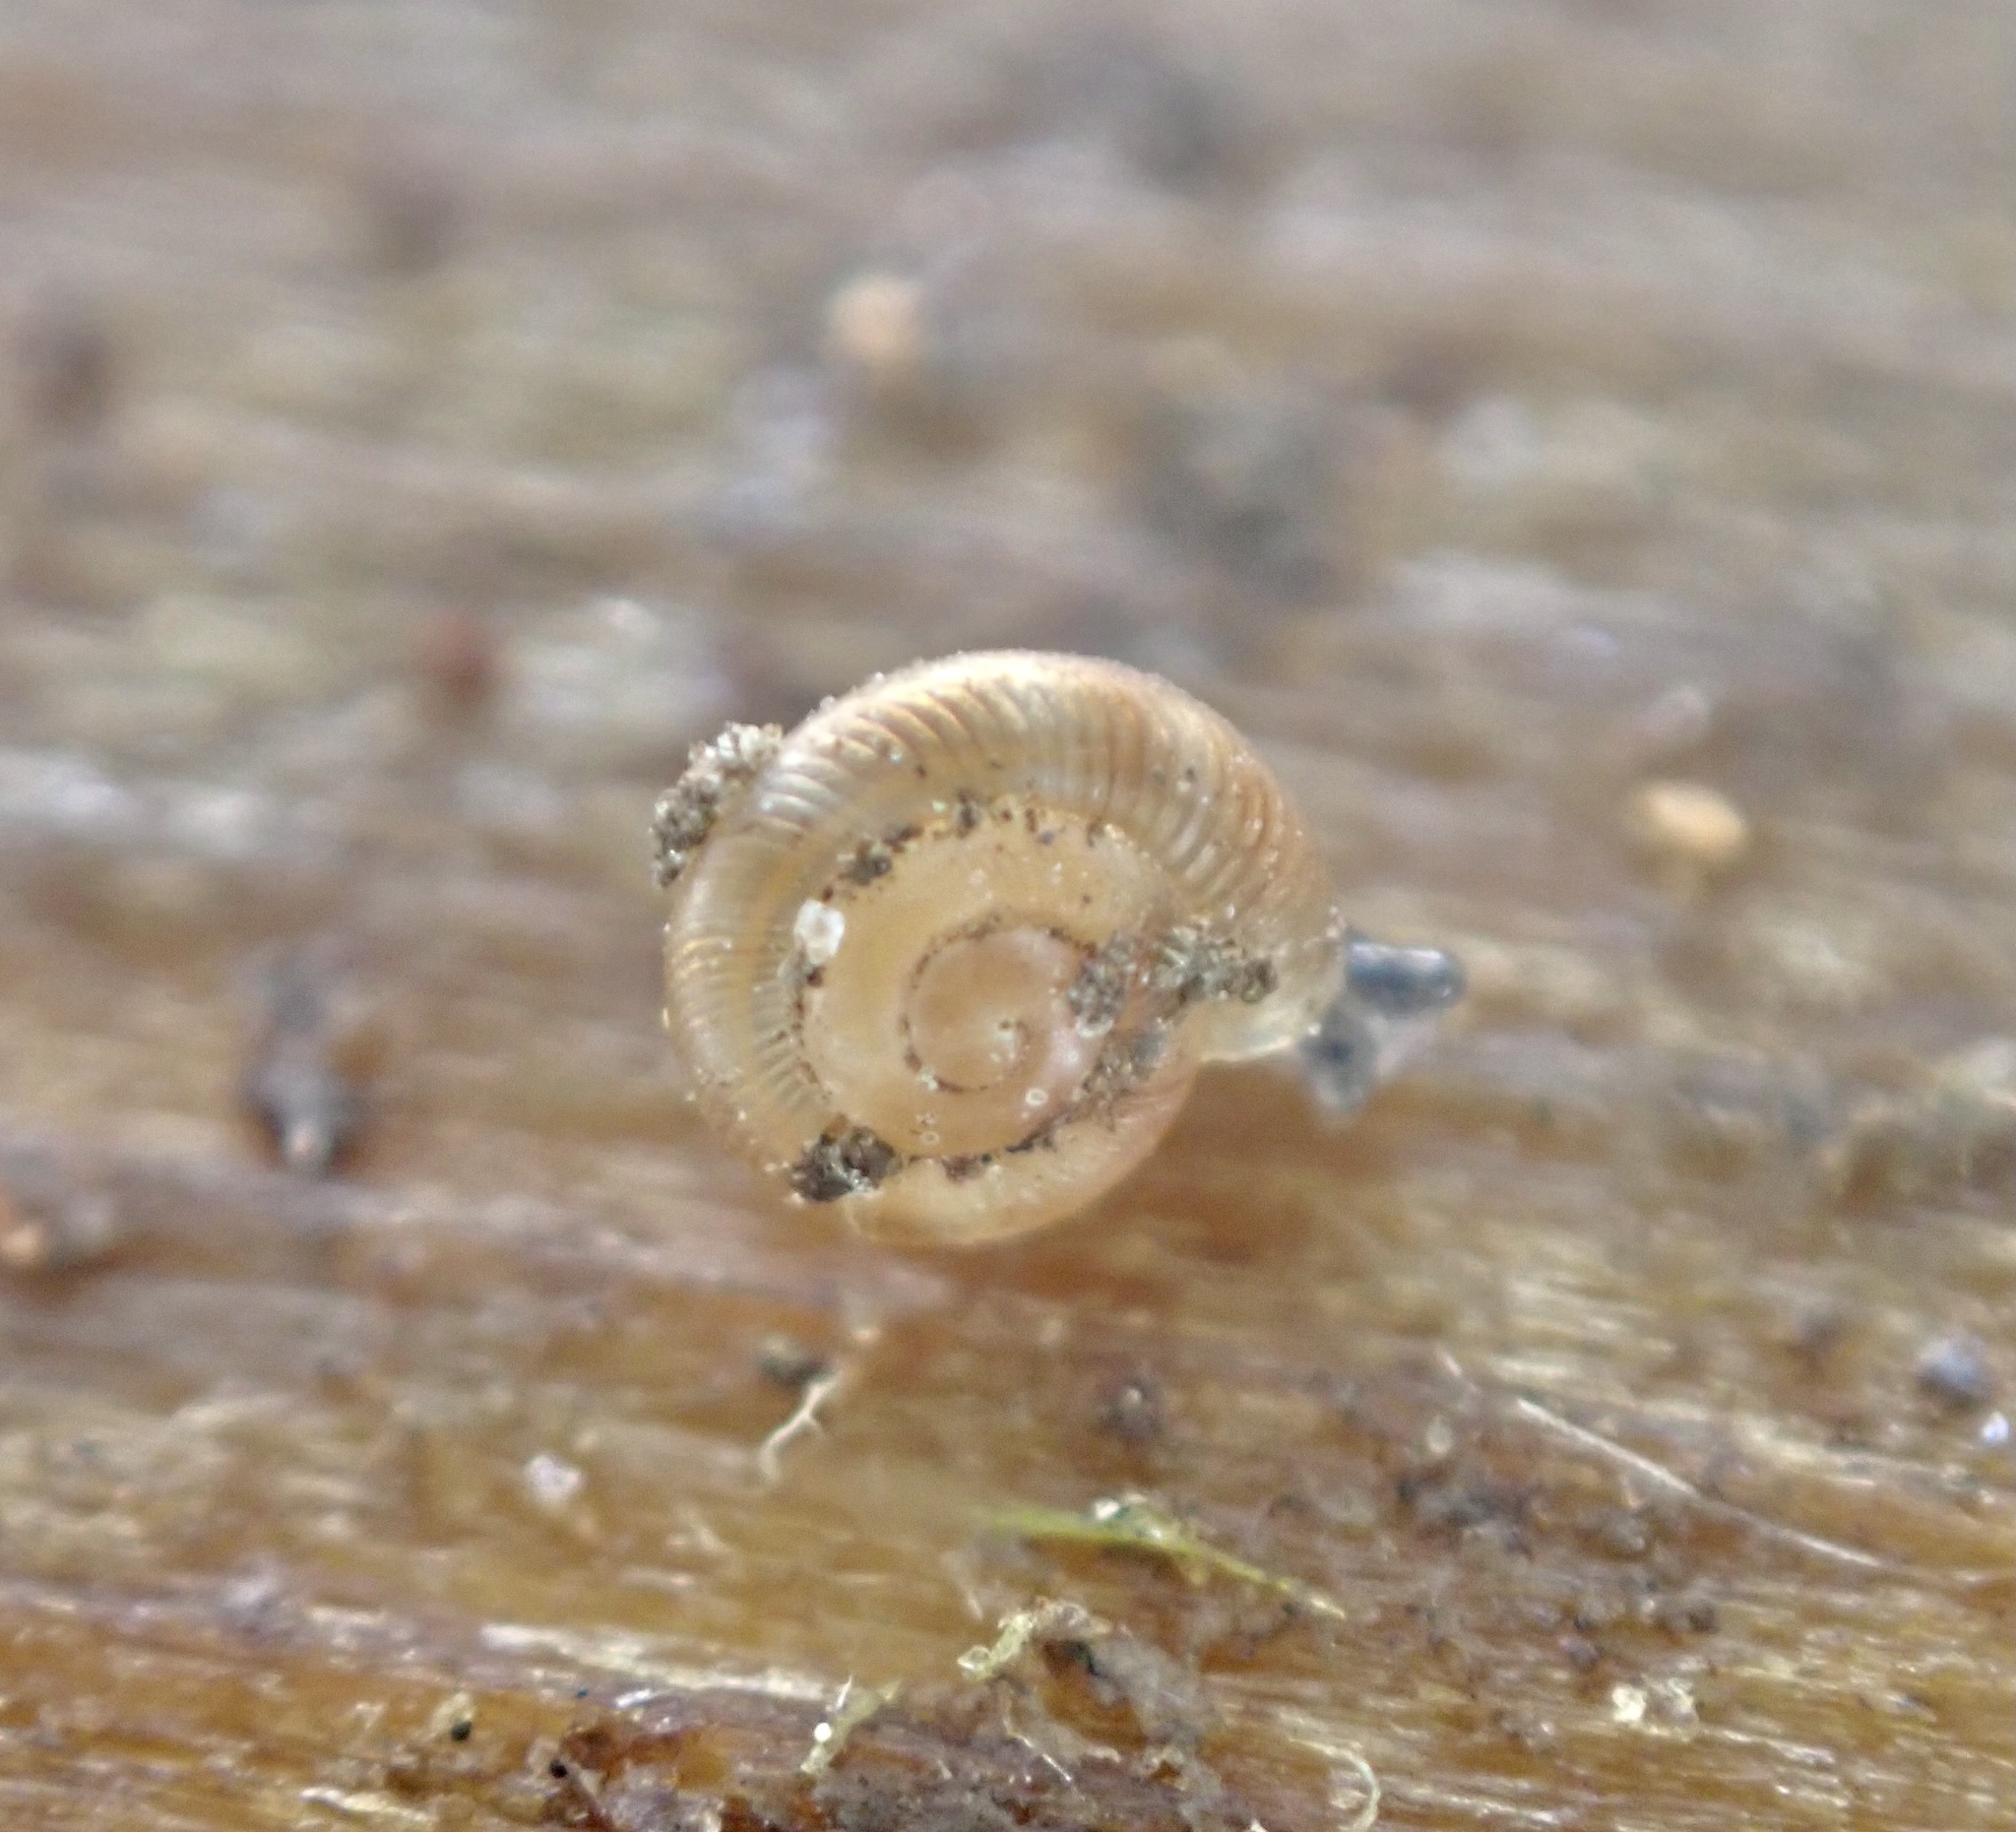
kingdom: Animalia
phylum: Mollusca
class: Gastropoda
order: Stylommatophora
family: Discidae
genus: Discus
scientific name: Discus rotundatus
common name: Rounded snail
